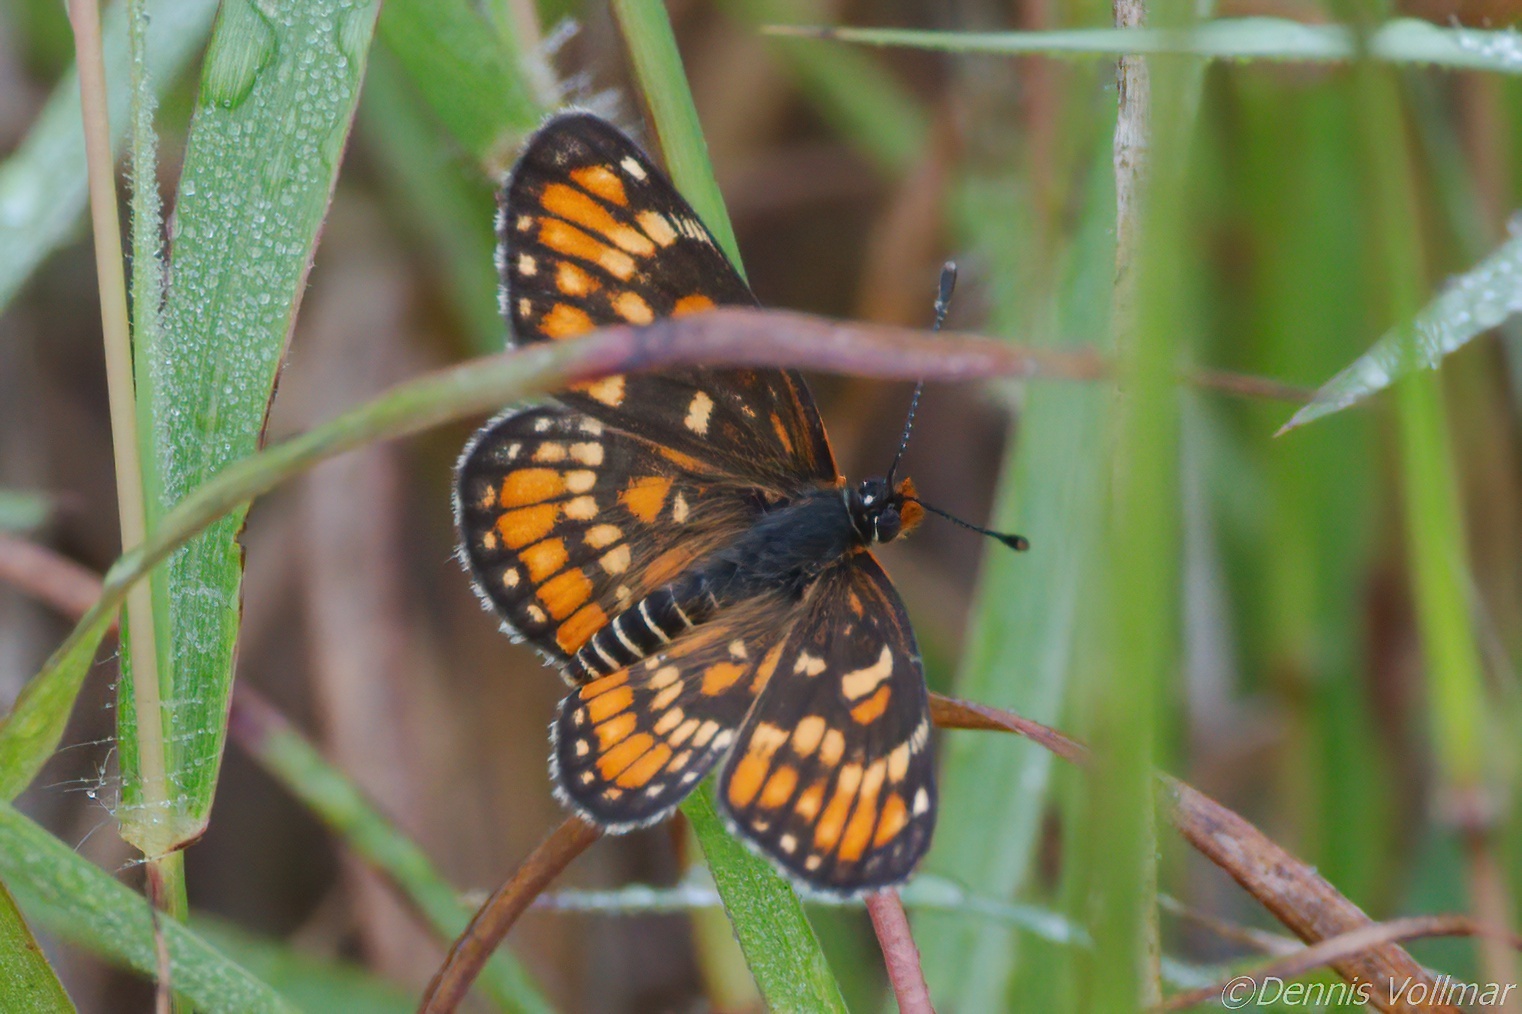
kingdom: Animalia
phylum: Arthropoda
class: Insecta
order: Lepidoptera
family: Nymphalidae
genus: Chlosyne
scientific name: Chlosyne definita
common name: Definite patch
